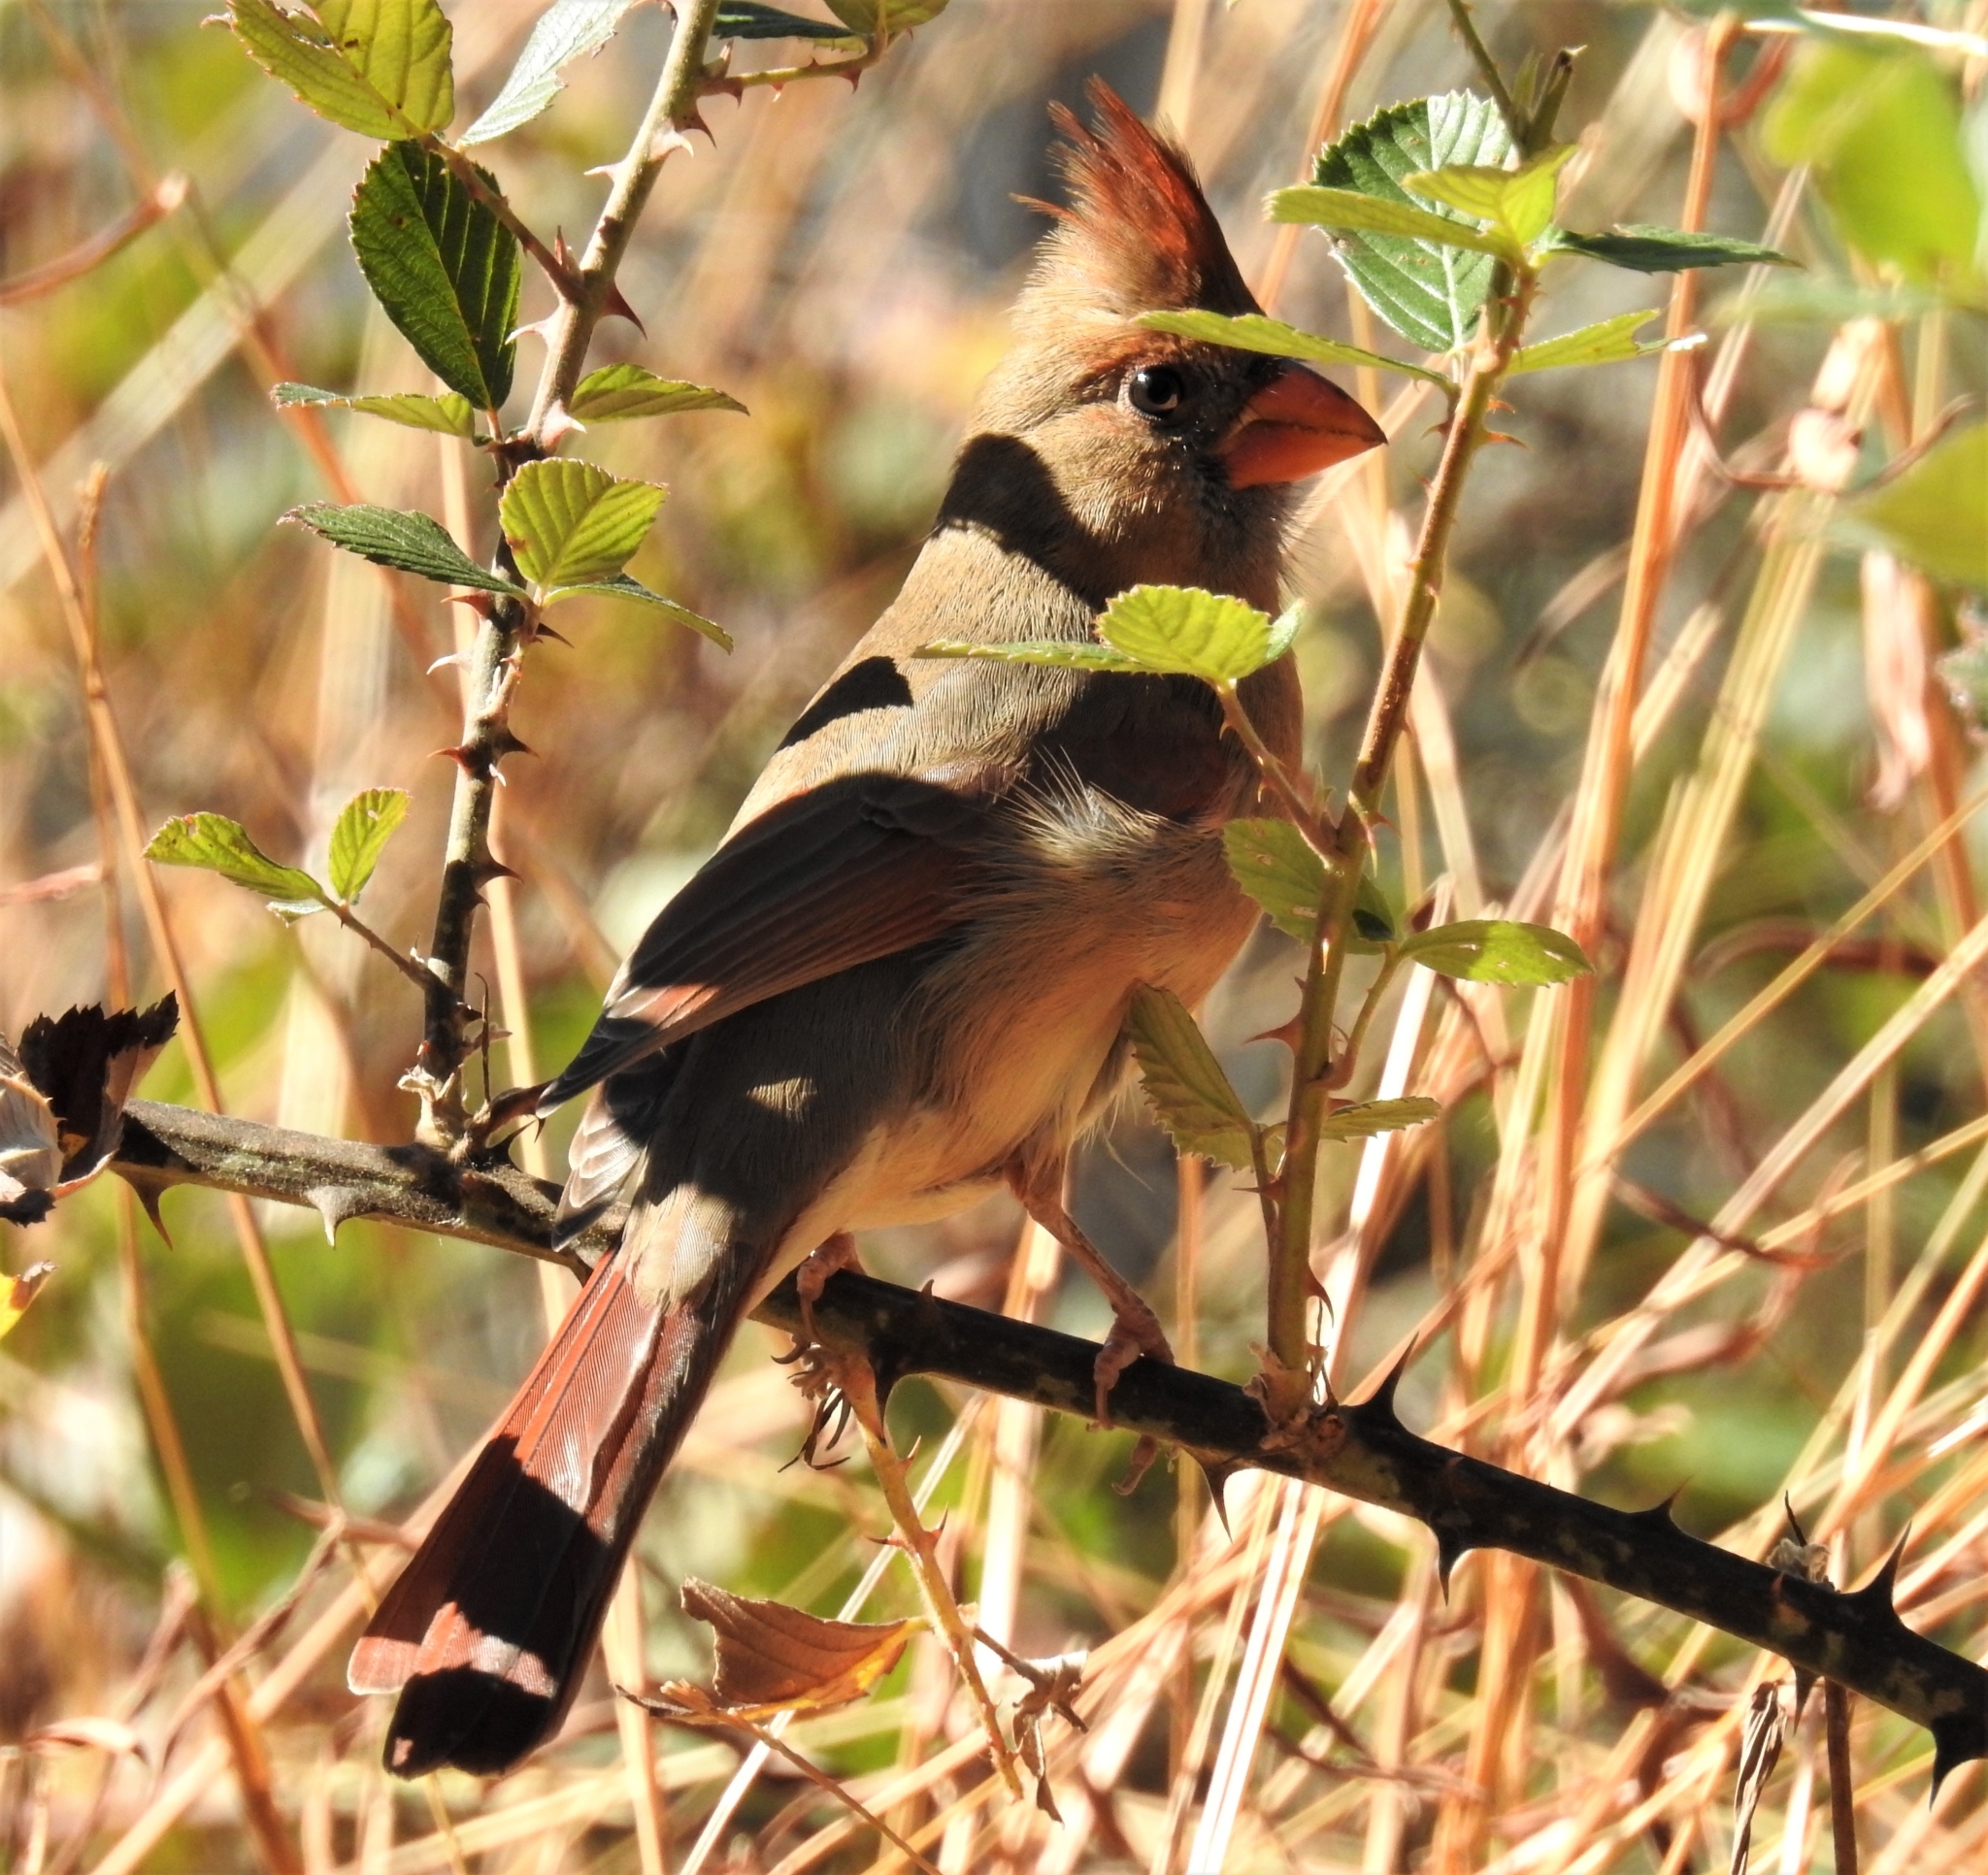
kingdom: Animalia
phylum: Chordata
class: Aves
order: Passeriformes
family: Cardinalidae
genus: Cardinalis
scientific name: Cardinalis cardinalis
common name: Northern cardinal
